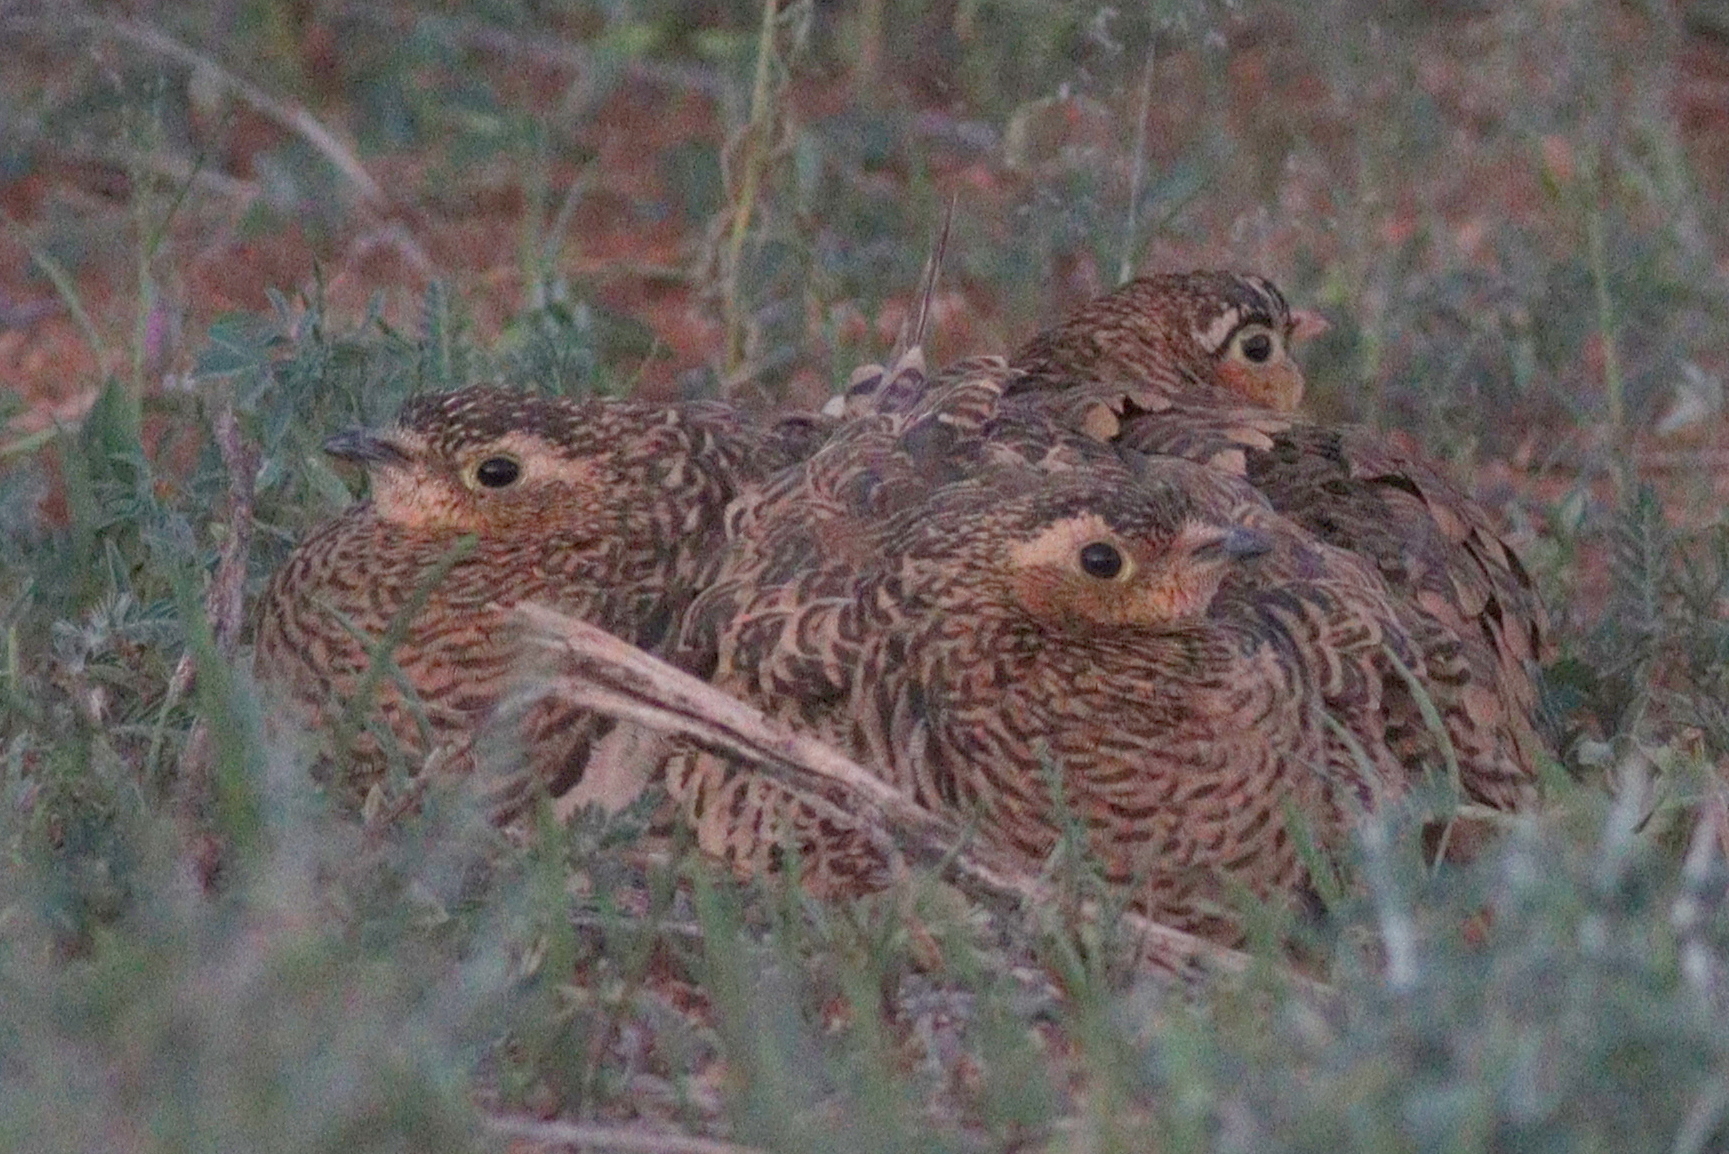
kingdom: Animalia
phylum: Chordata
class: Aves
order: Pteroclidiformes
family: Pteroclididae
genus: Pterocles
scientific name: Pterocles decoratus
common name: Black-faced sandgrouse
